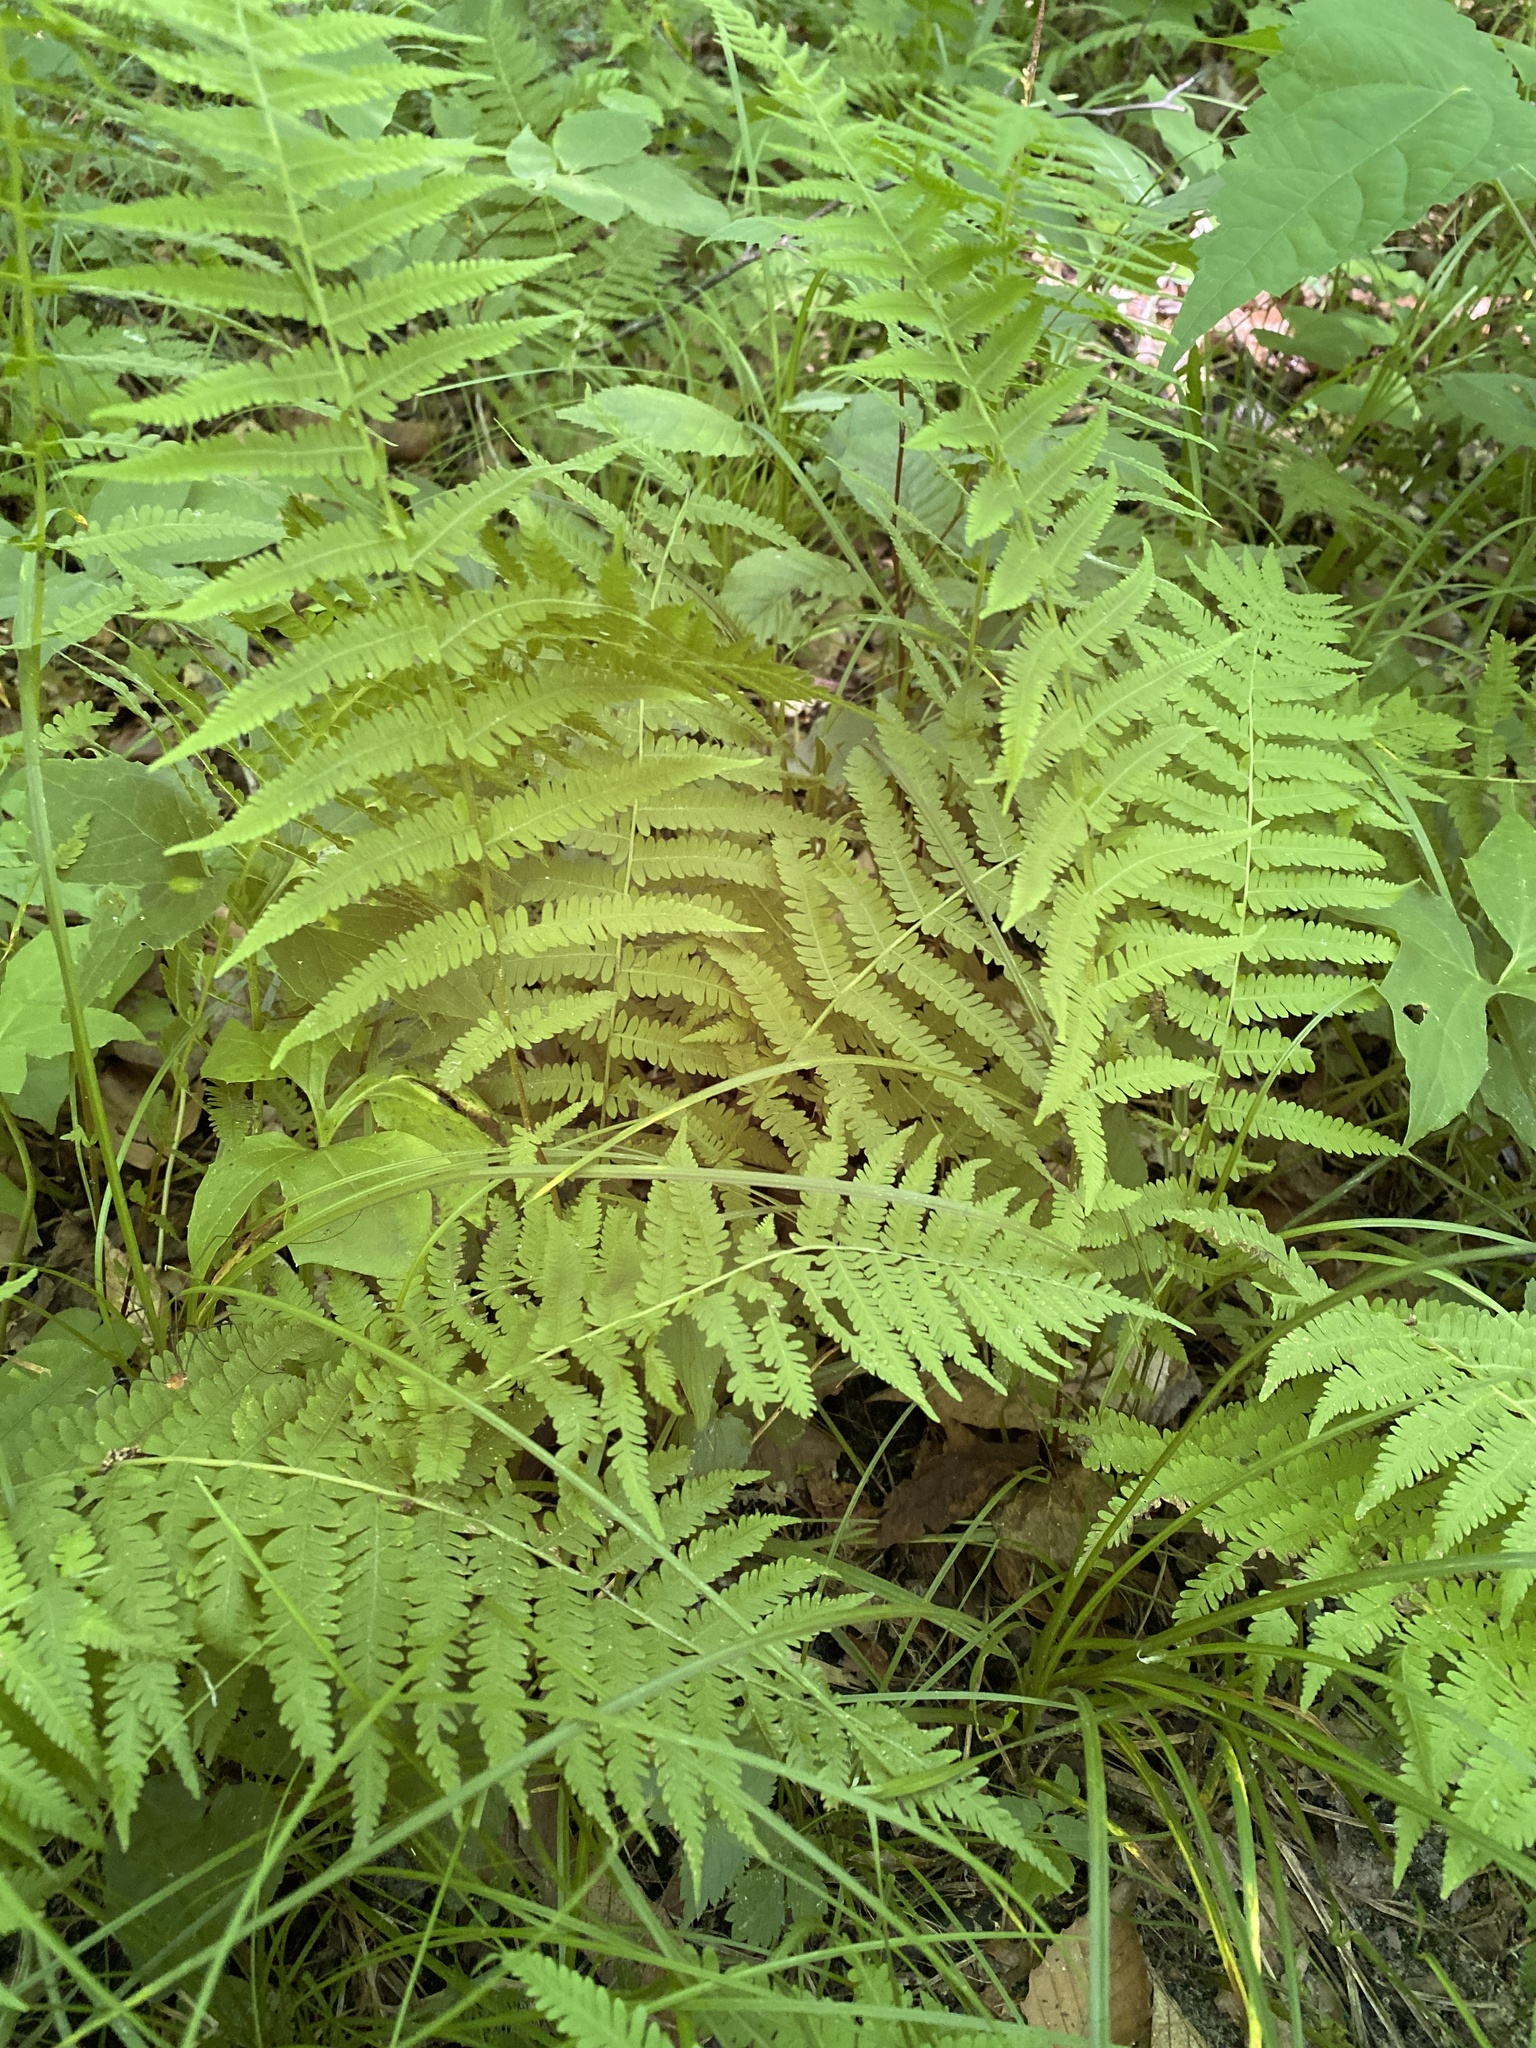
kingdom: Plantae
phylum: Tracheophyta
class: Polypodiopsida
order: Polypodiales
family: Thelypteridaceae
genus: Amauropelta
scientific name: Amauropelta noveboracensis
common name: New york fern
